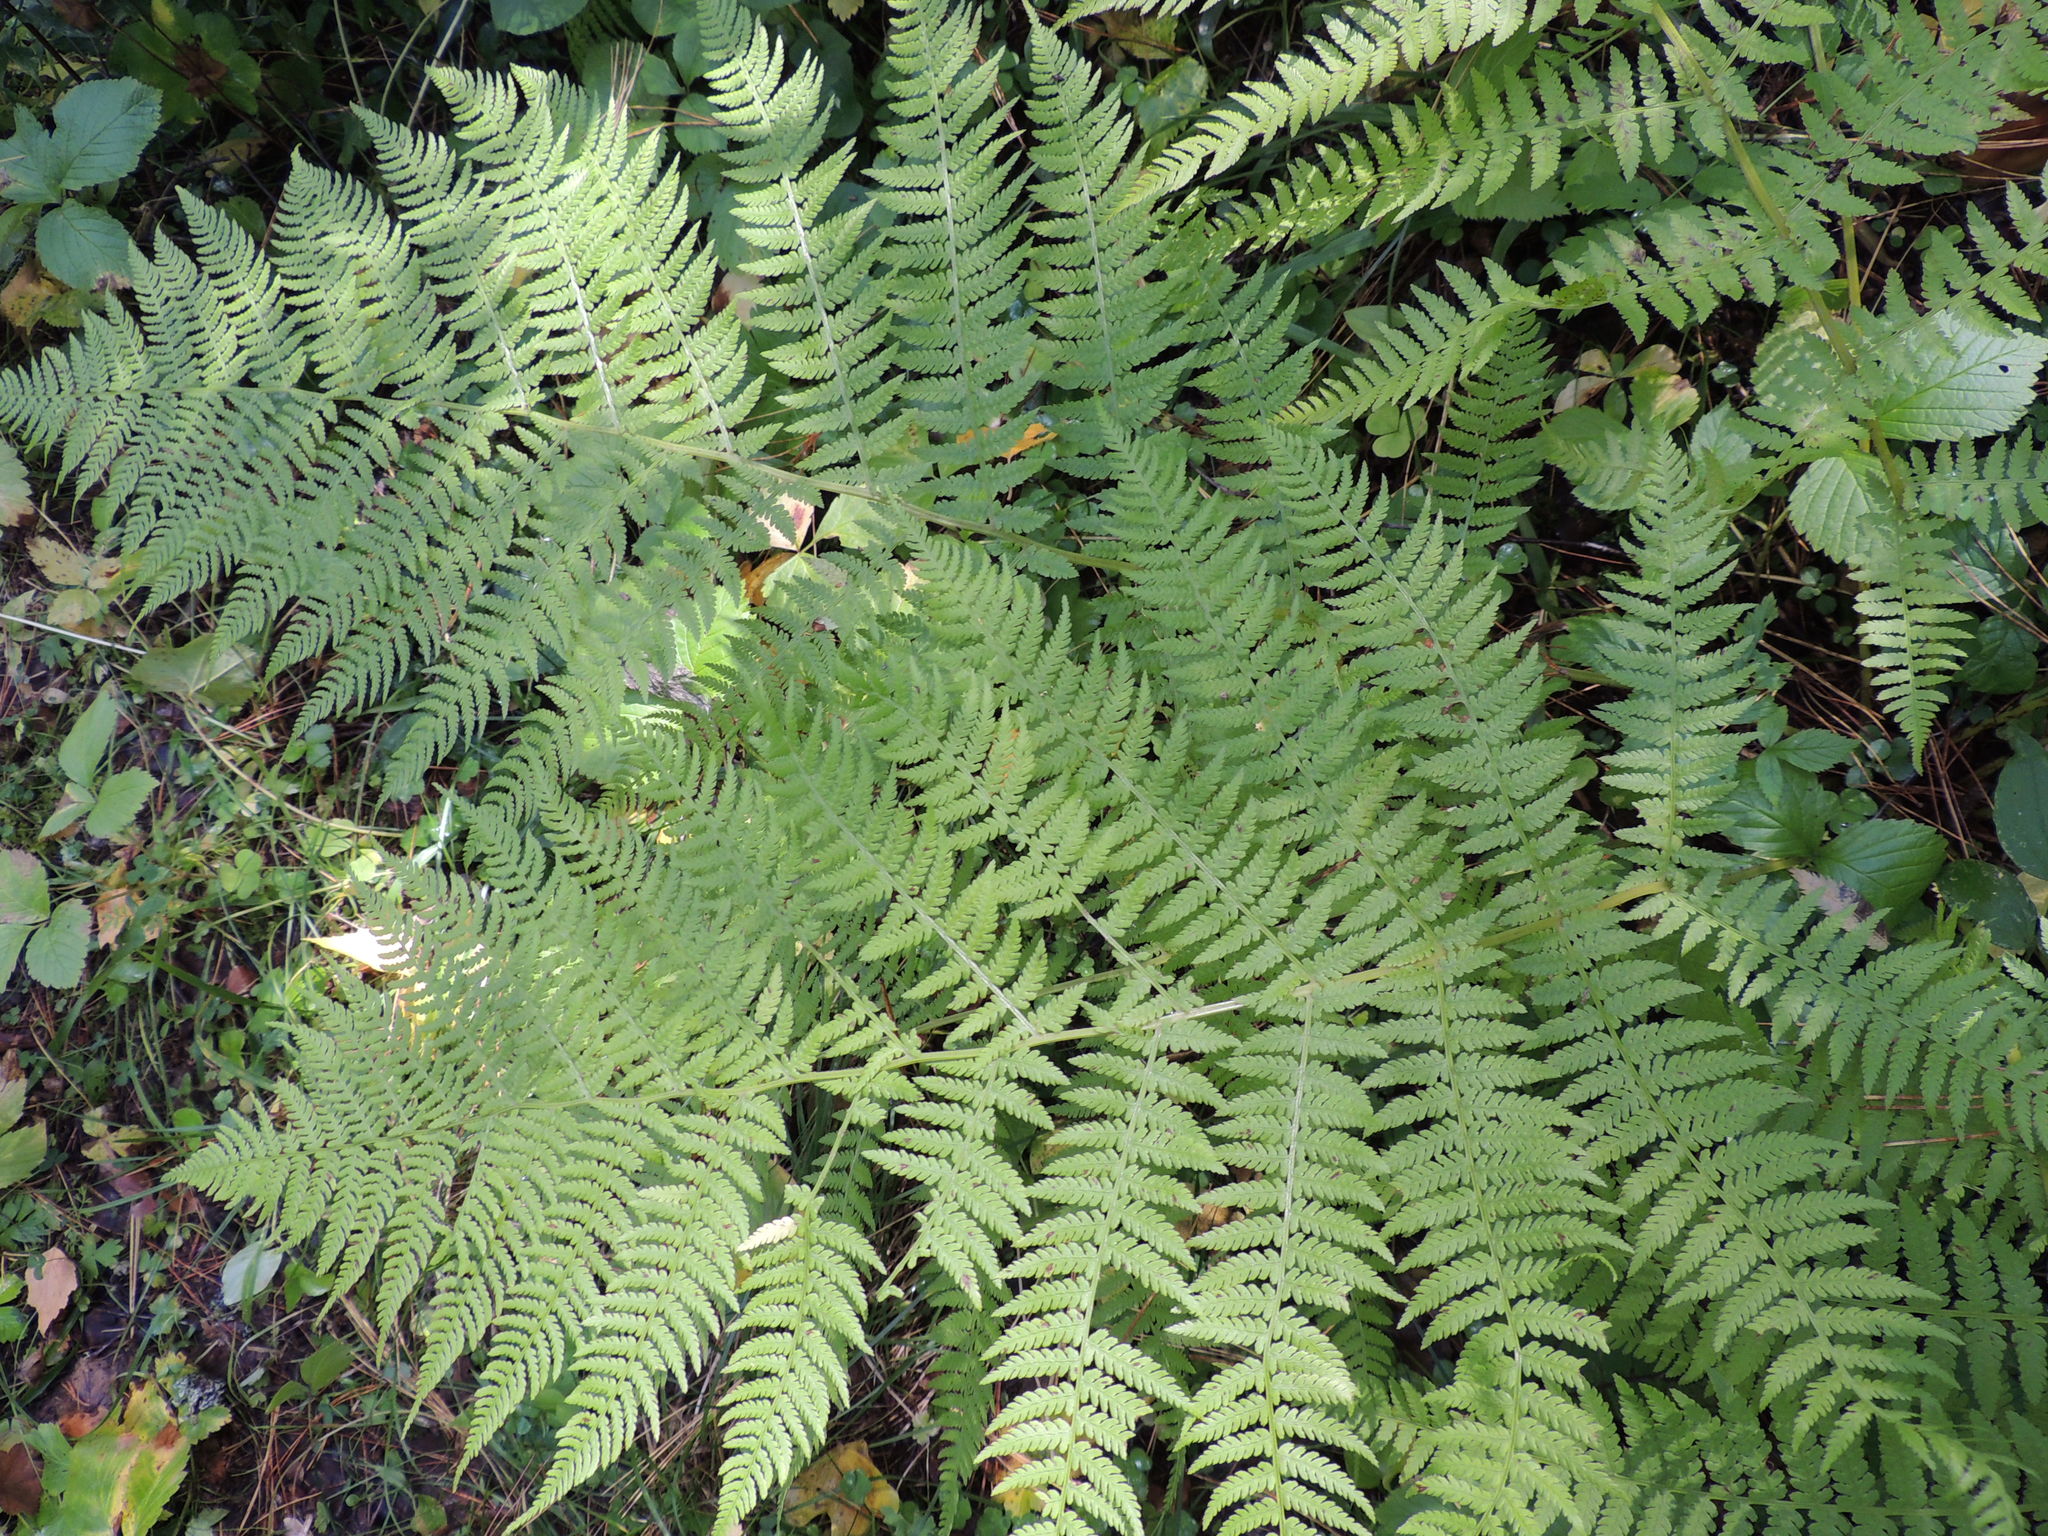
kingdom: Plantae
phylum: Tracheophyta
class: Polypodiopsida
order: Polypodiales
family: Athyriaceae
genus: Athyrium
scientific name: Athyrium filix-femina
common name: Lady fern
